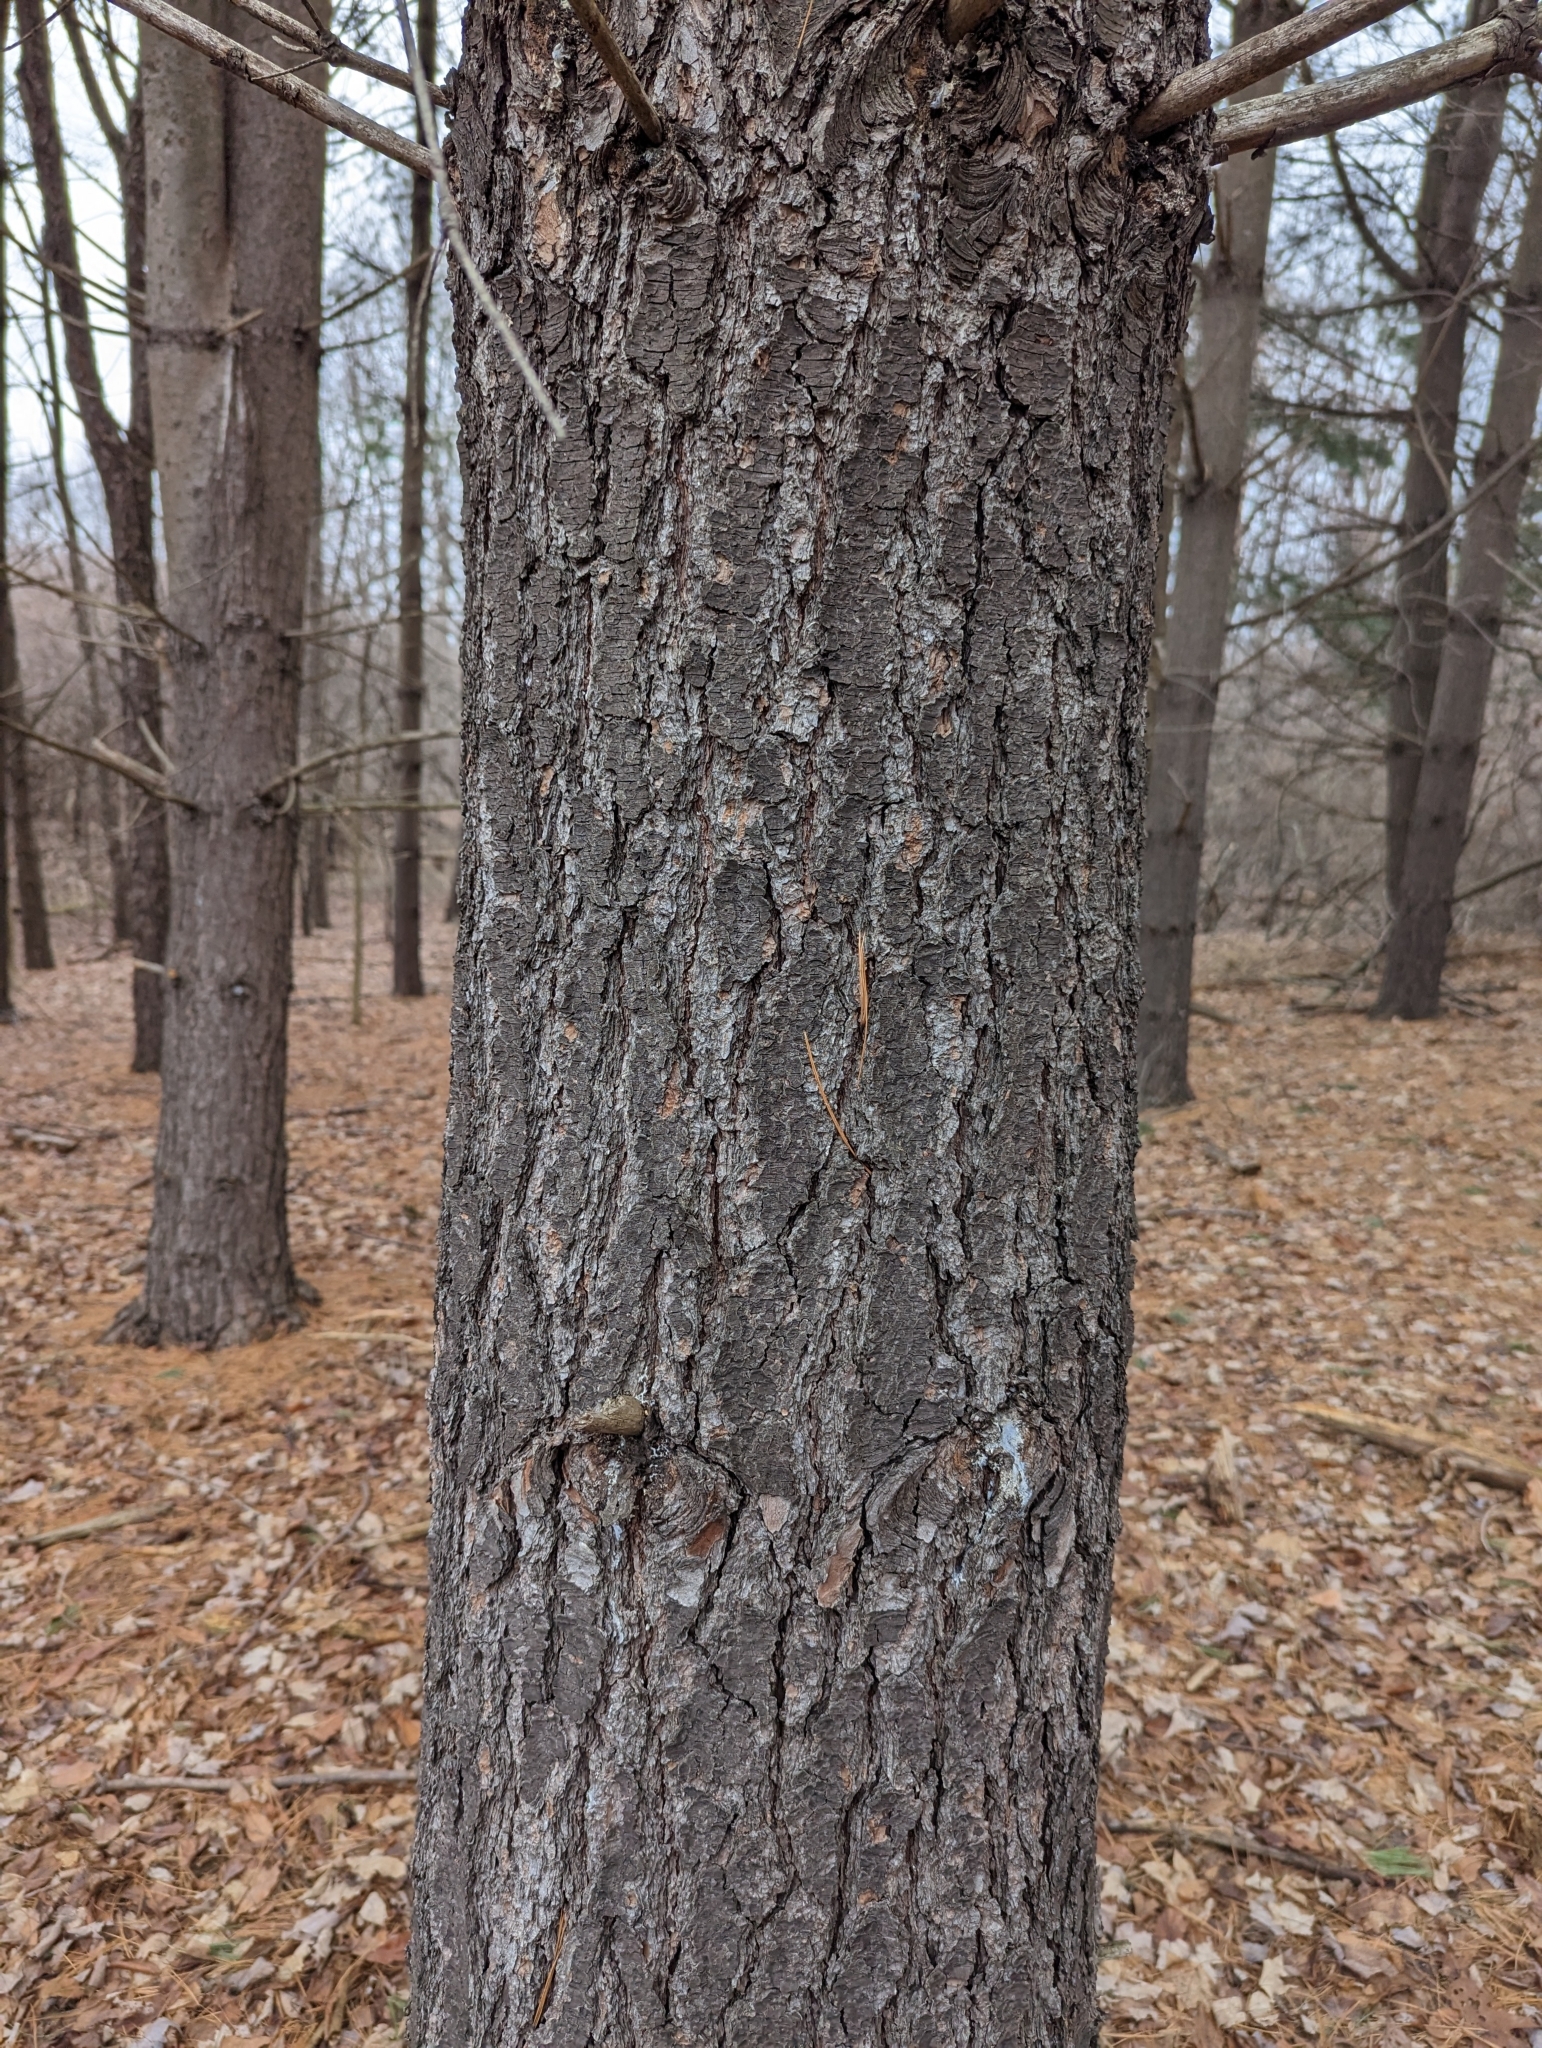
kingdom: Plantae
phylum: Tracheophyta
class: Pinopsida
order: Pinales
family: Pinaceae
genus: Pinus
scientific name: Pinus strobus
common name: Weymouth pine
